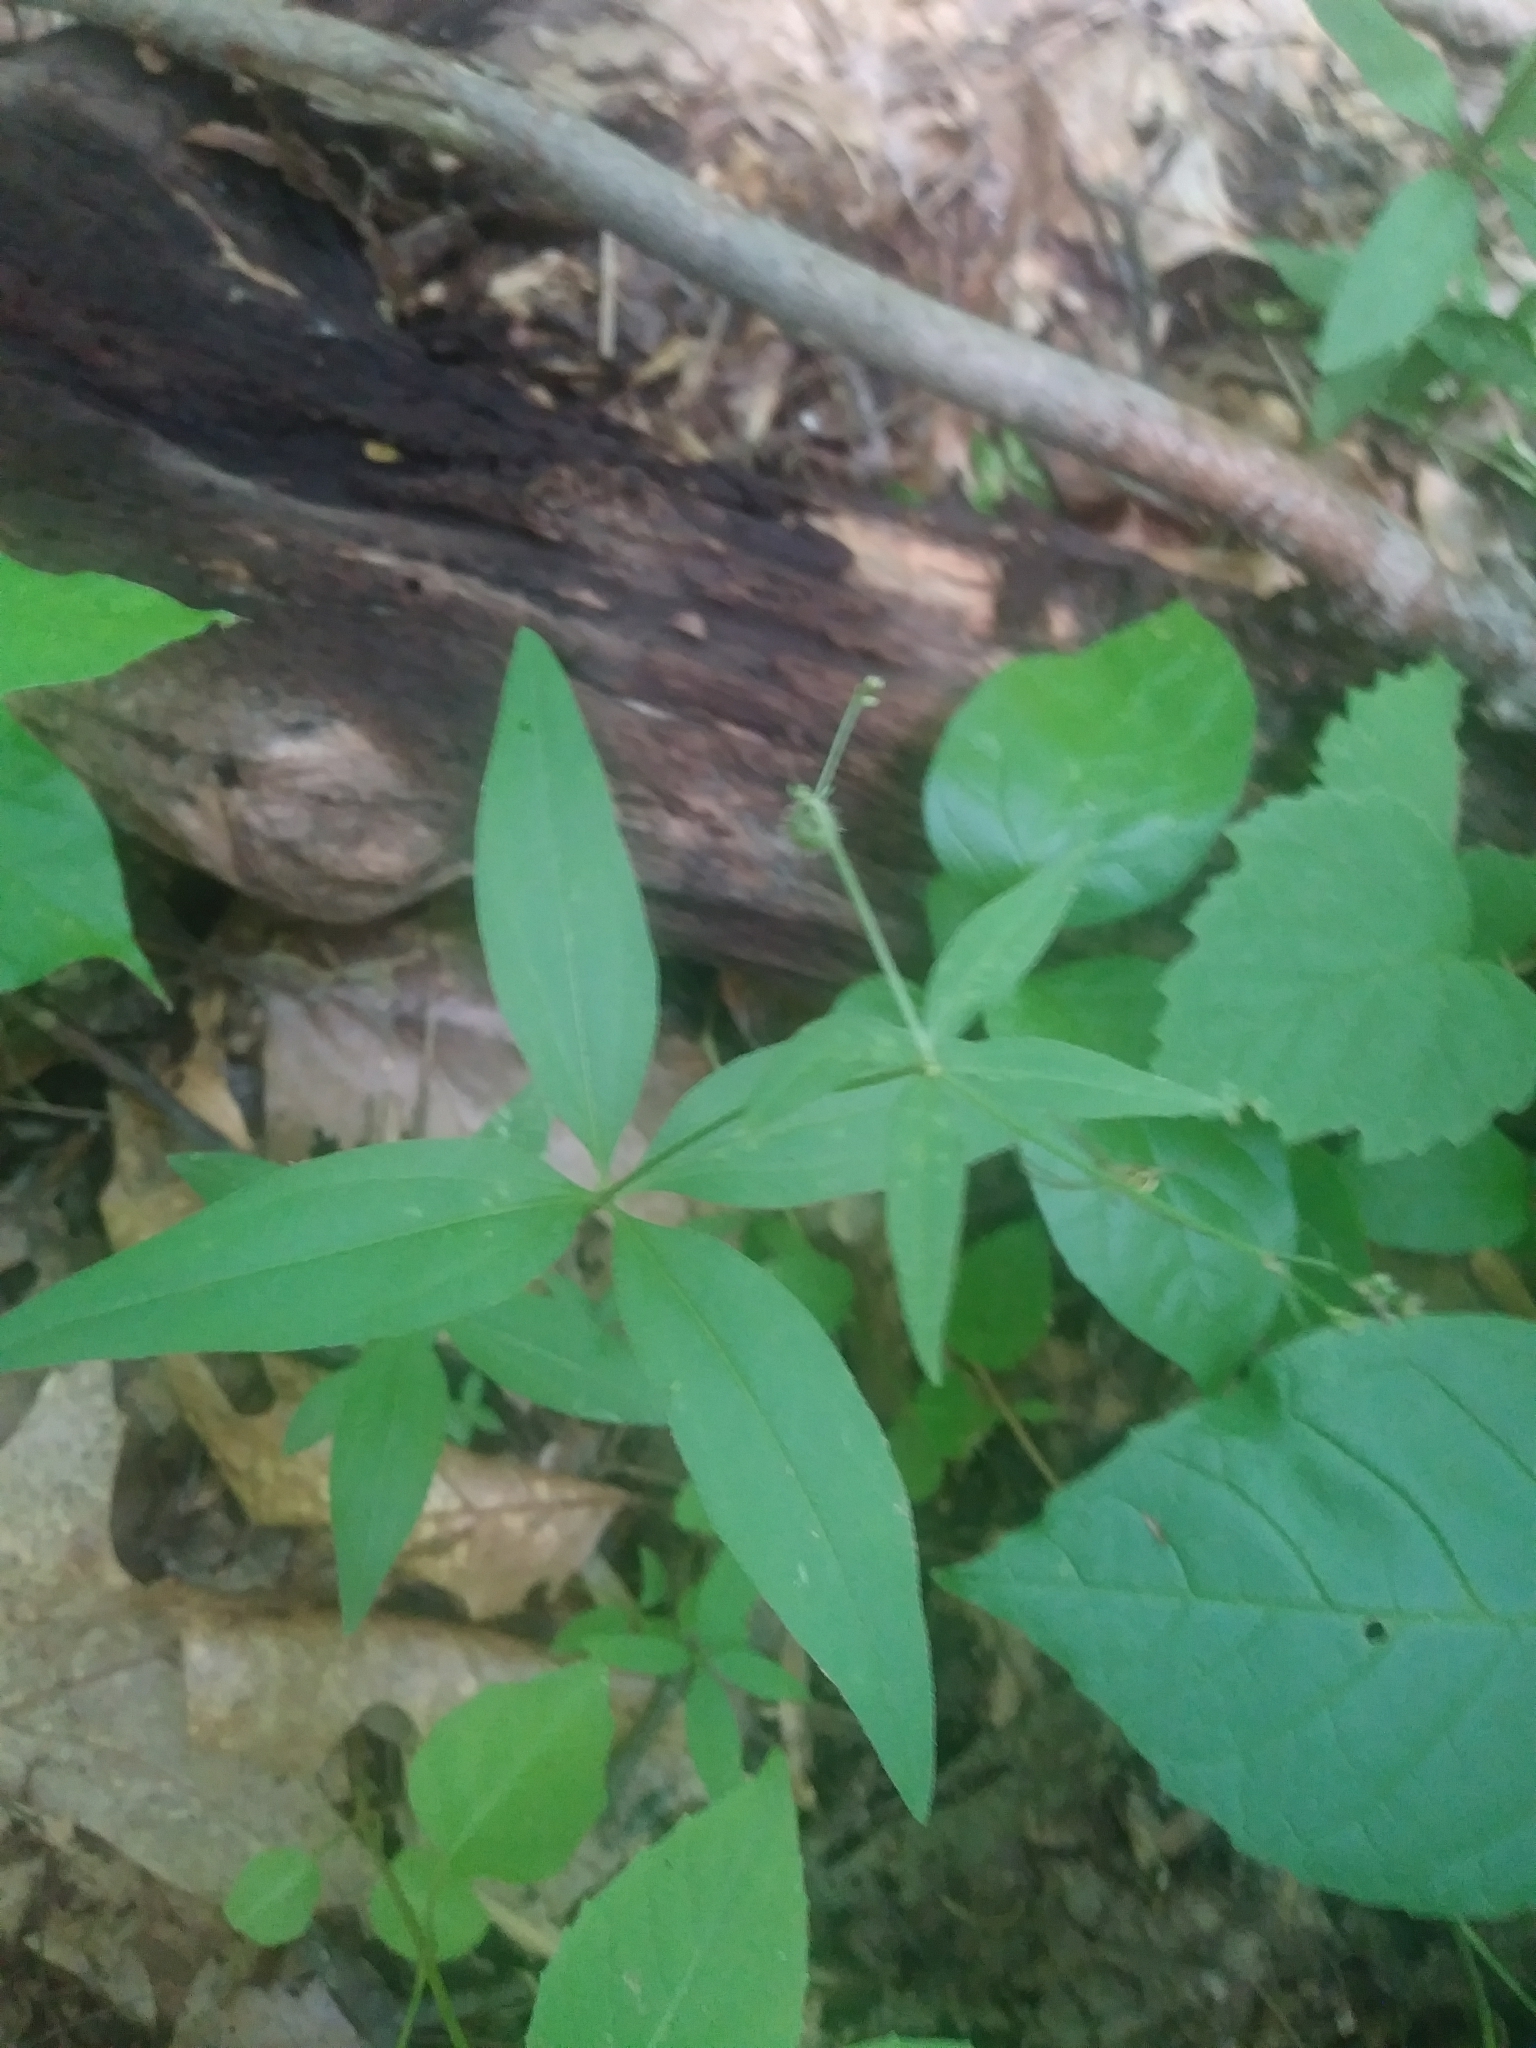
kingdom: Plantae
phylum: Tracheophyta
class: Magnoliopsida
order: Gentianales
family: Rubiaceae
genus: Galium
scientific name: Galium lanceolatum
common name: Lance-leaved wild licorice
